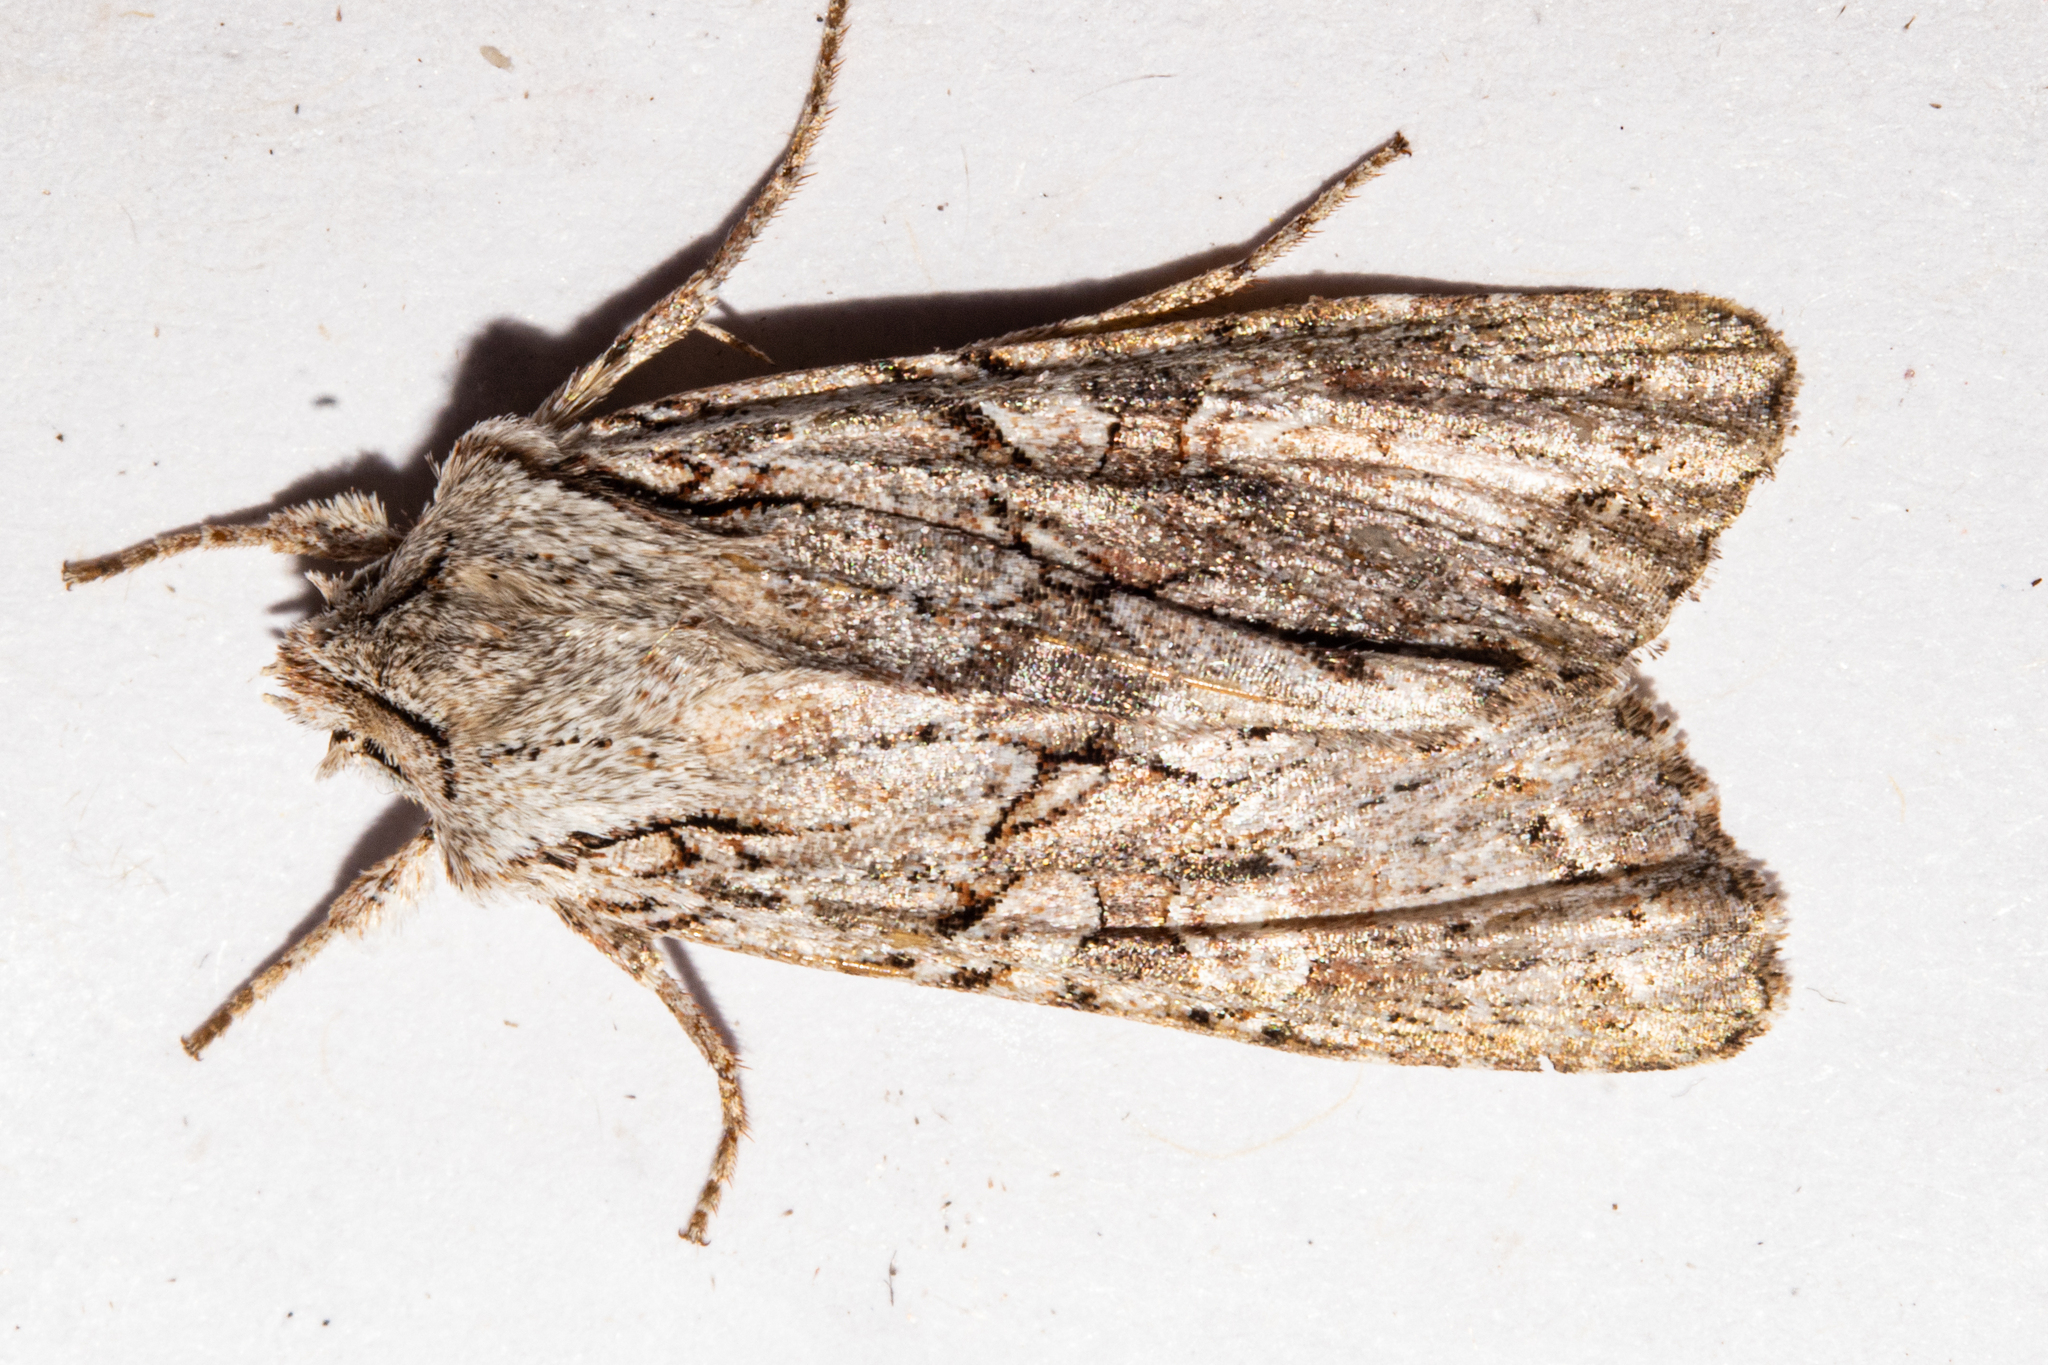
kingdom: Animalia
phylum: Arthropoda
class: Insecta
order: Lepidoptera
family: Noctuidae
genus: Ichneutica
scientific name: Ichneutica mutans
